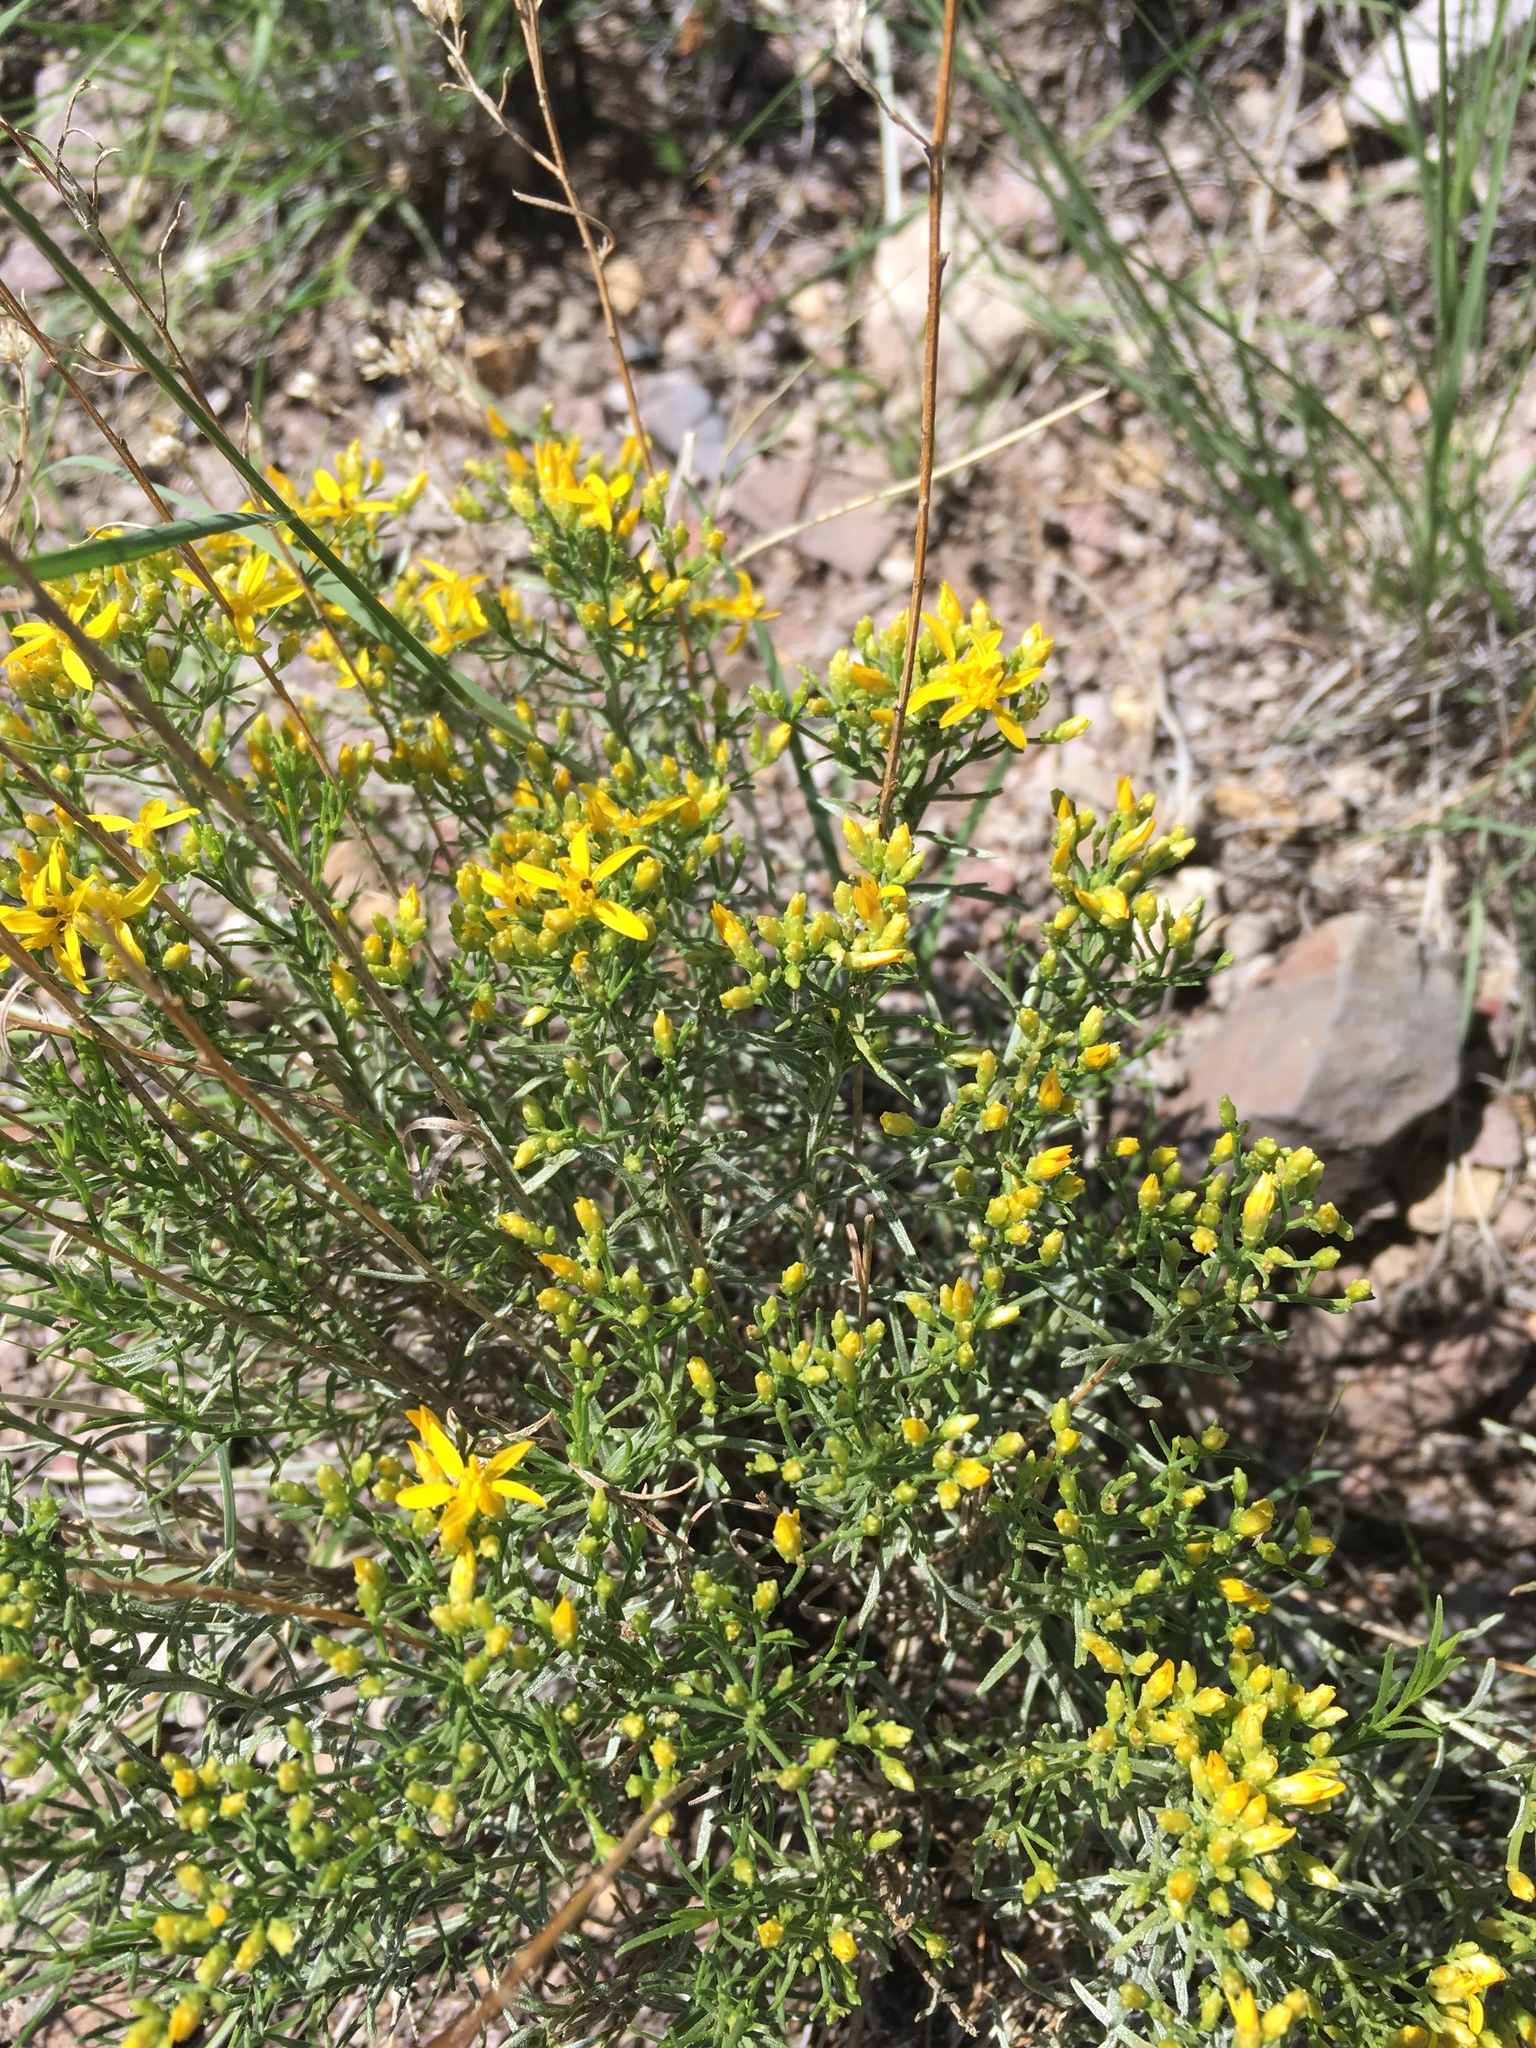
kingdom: Plantae
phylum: Tracheophyta
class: Magnoliopsida
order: Asterales
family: Asteraceae
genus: Gutierrezia
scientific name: Gutierrezia sarothrae
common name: Broom snakeweed
